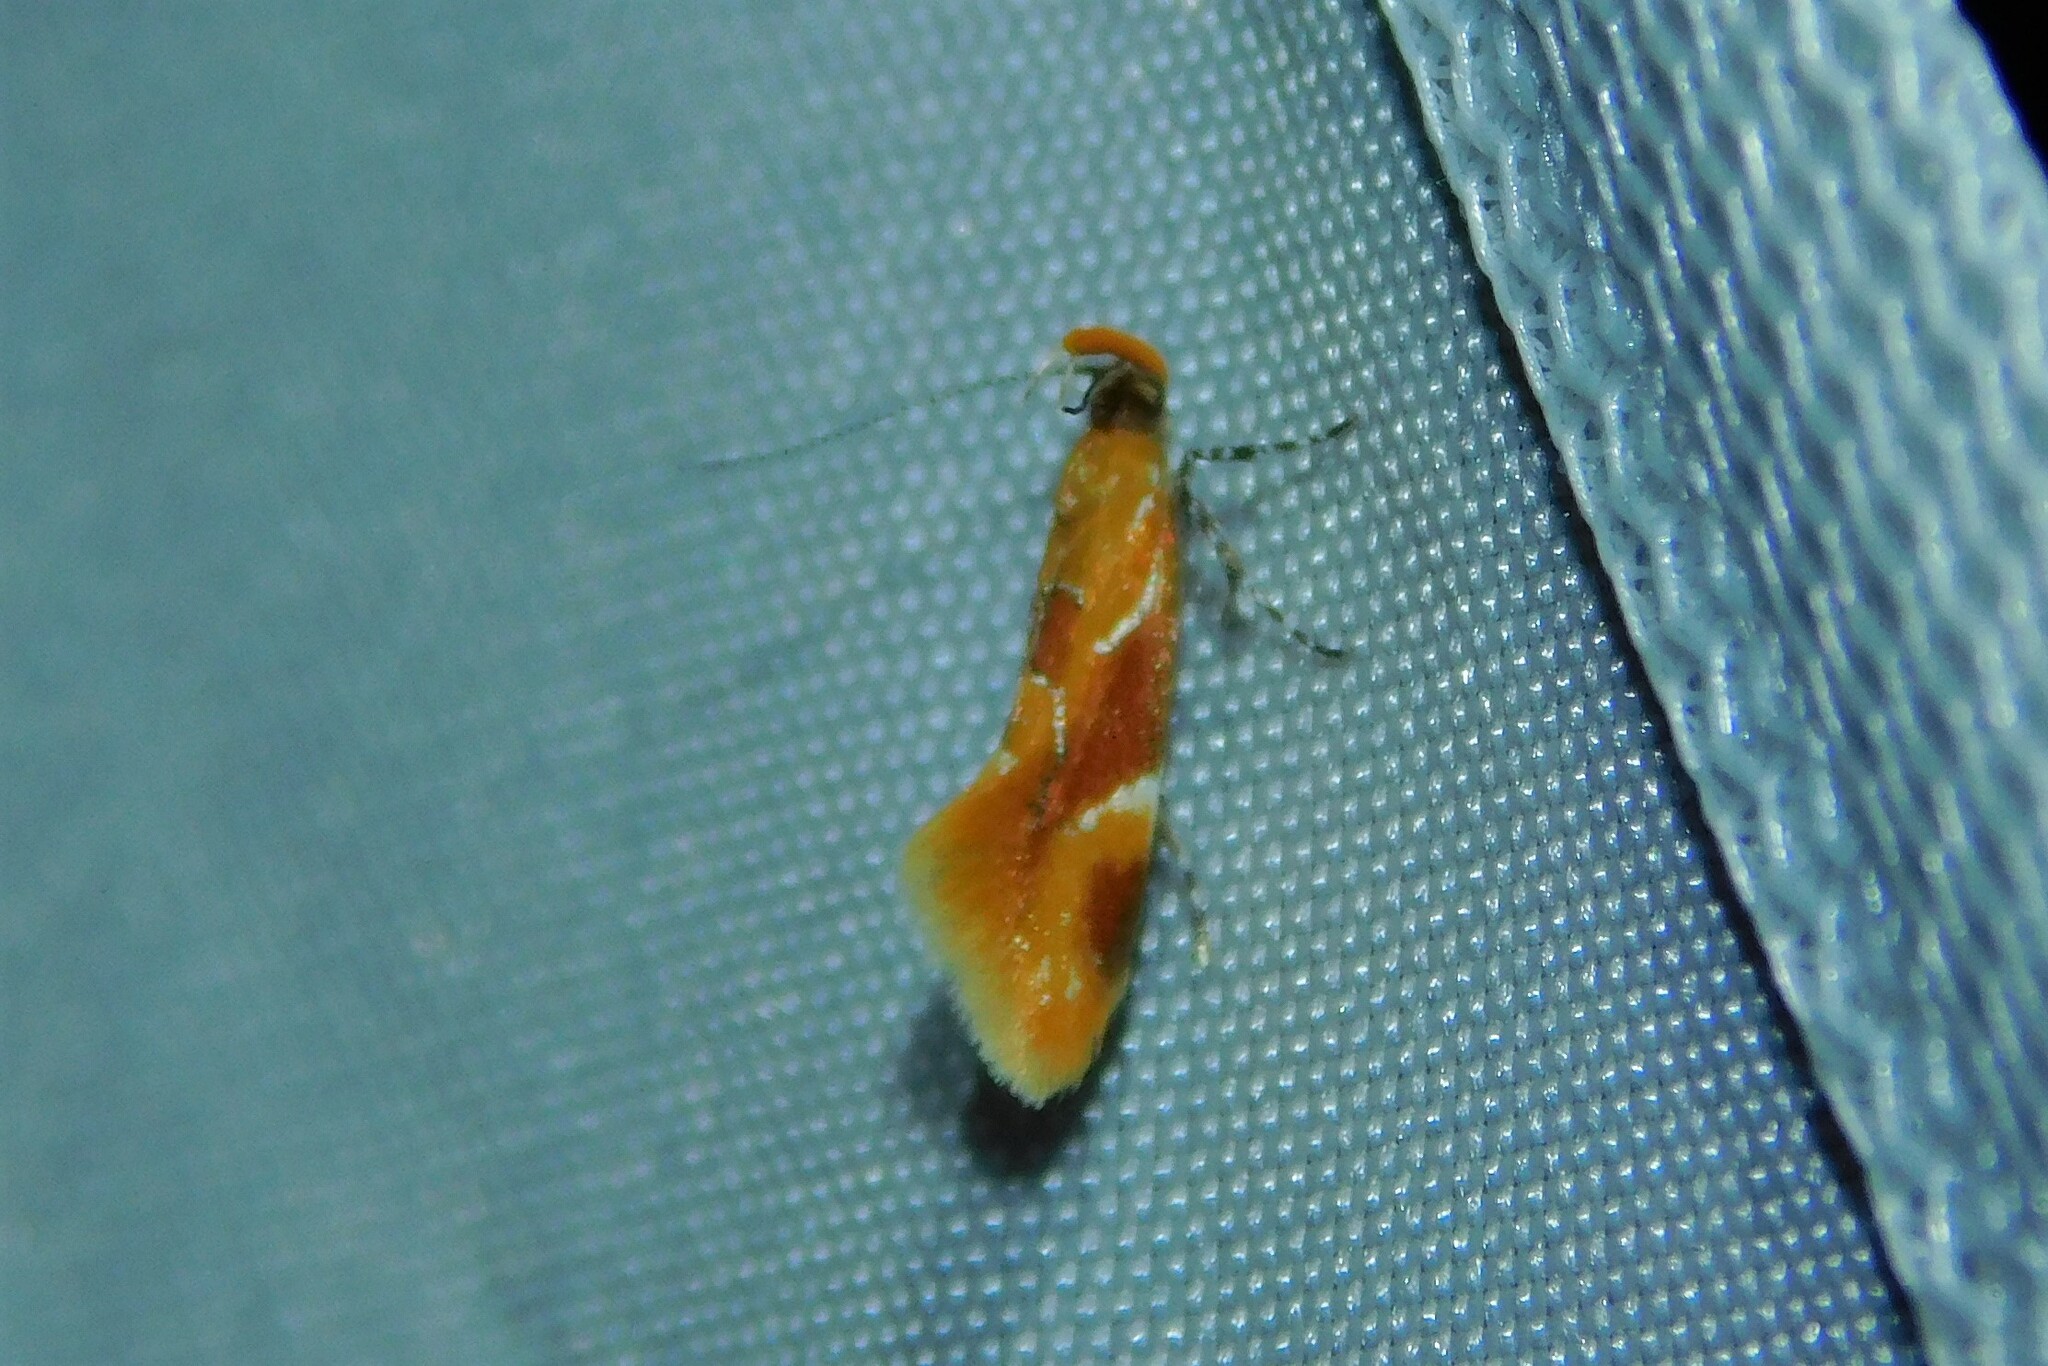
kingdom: Animalia
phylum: Arthropoda
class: Insecta
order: Lepidoptera
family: Oecophoridae
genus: Callima
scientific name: Callima formosella
